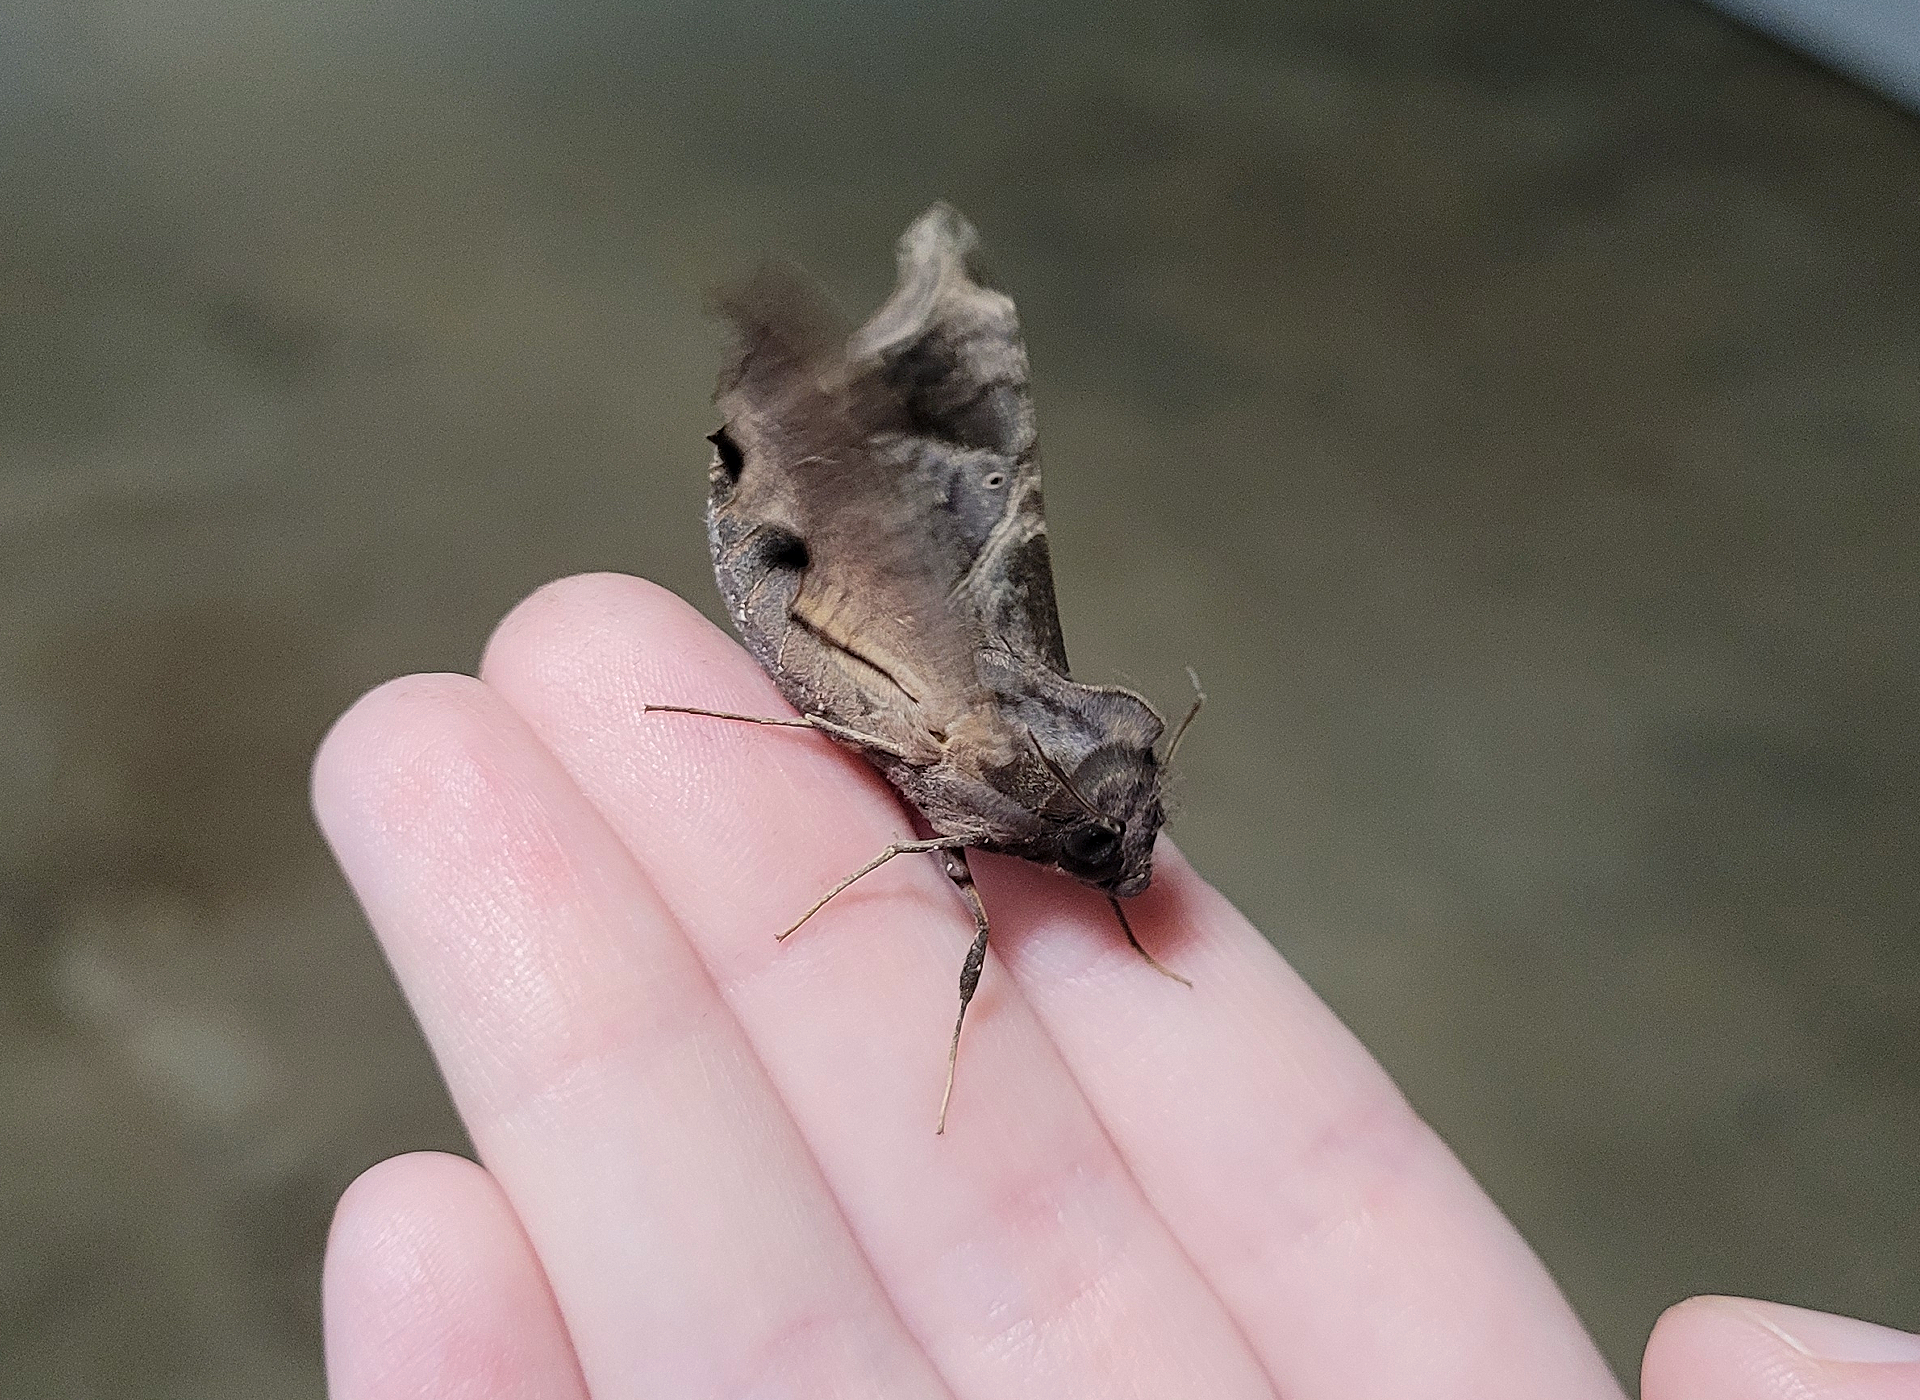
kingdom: Animalia
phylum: Arthropoda
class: Insecta
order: Lepidoptera
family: Sphingidae
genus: Enyo
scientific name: Enyo lugubris
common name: Mournful sphinx
